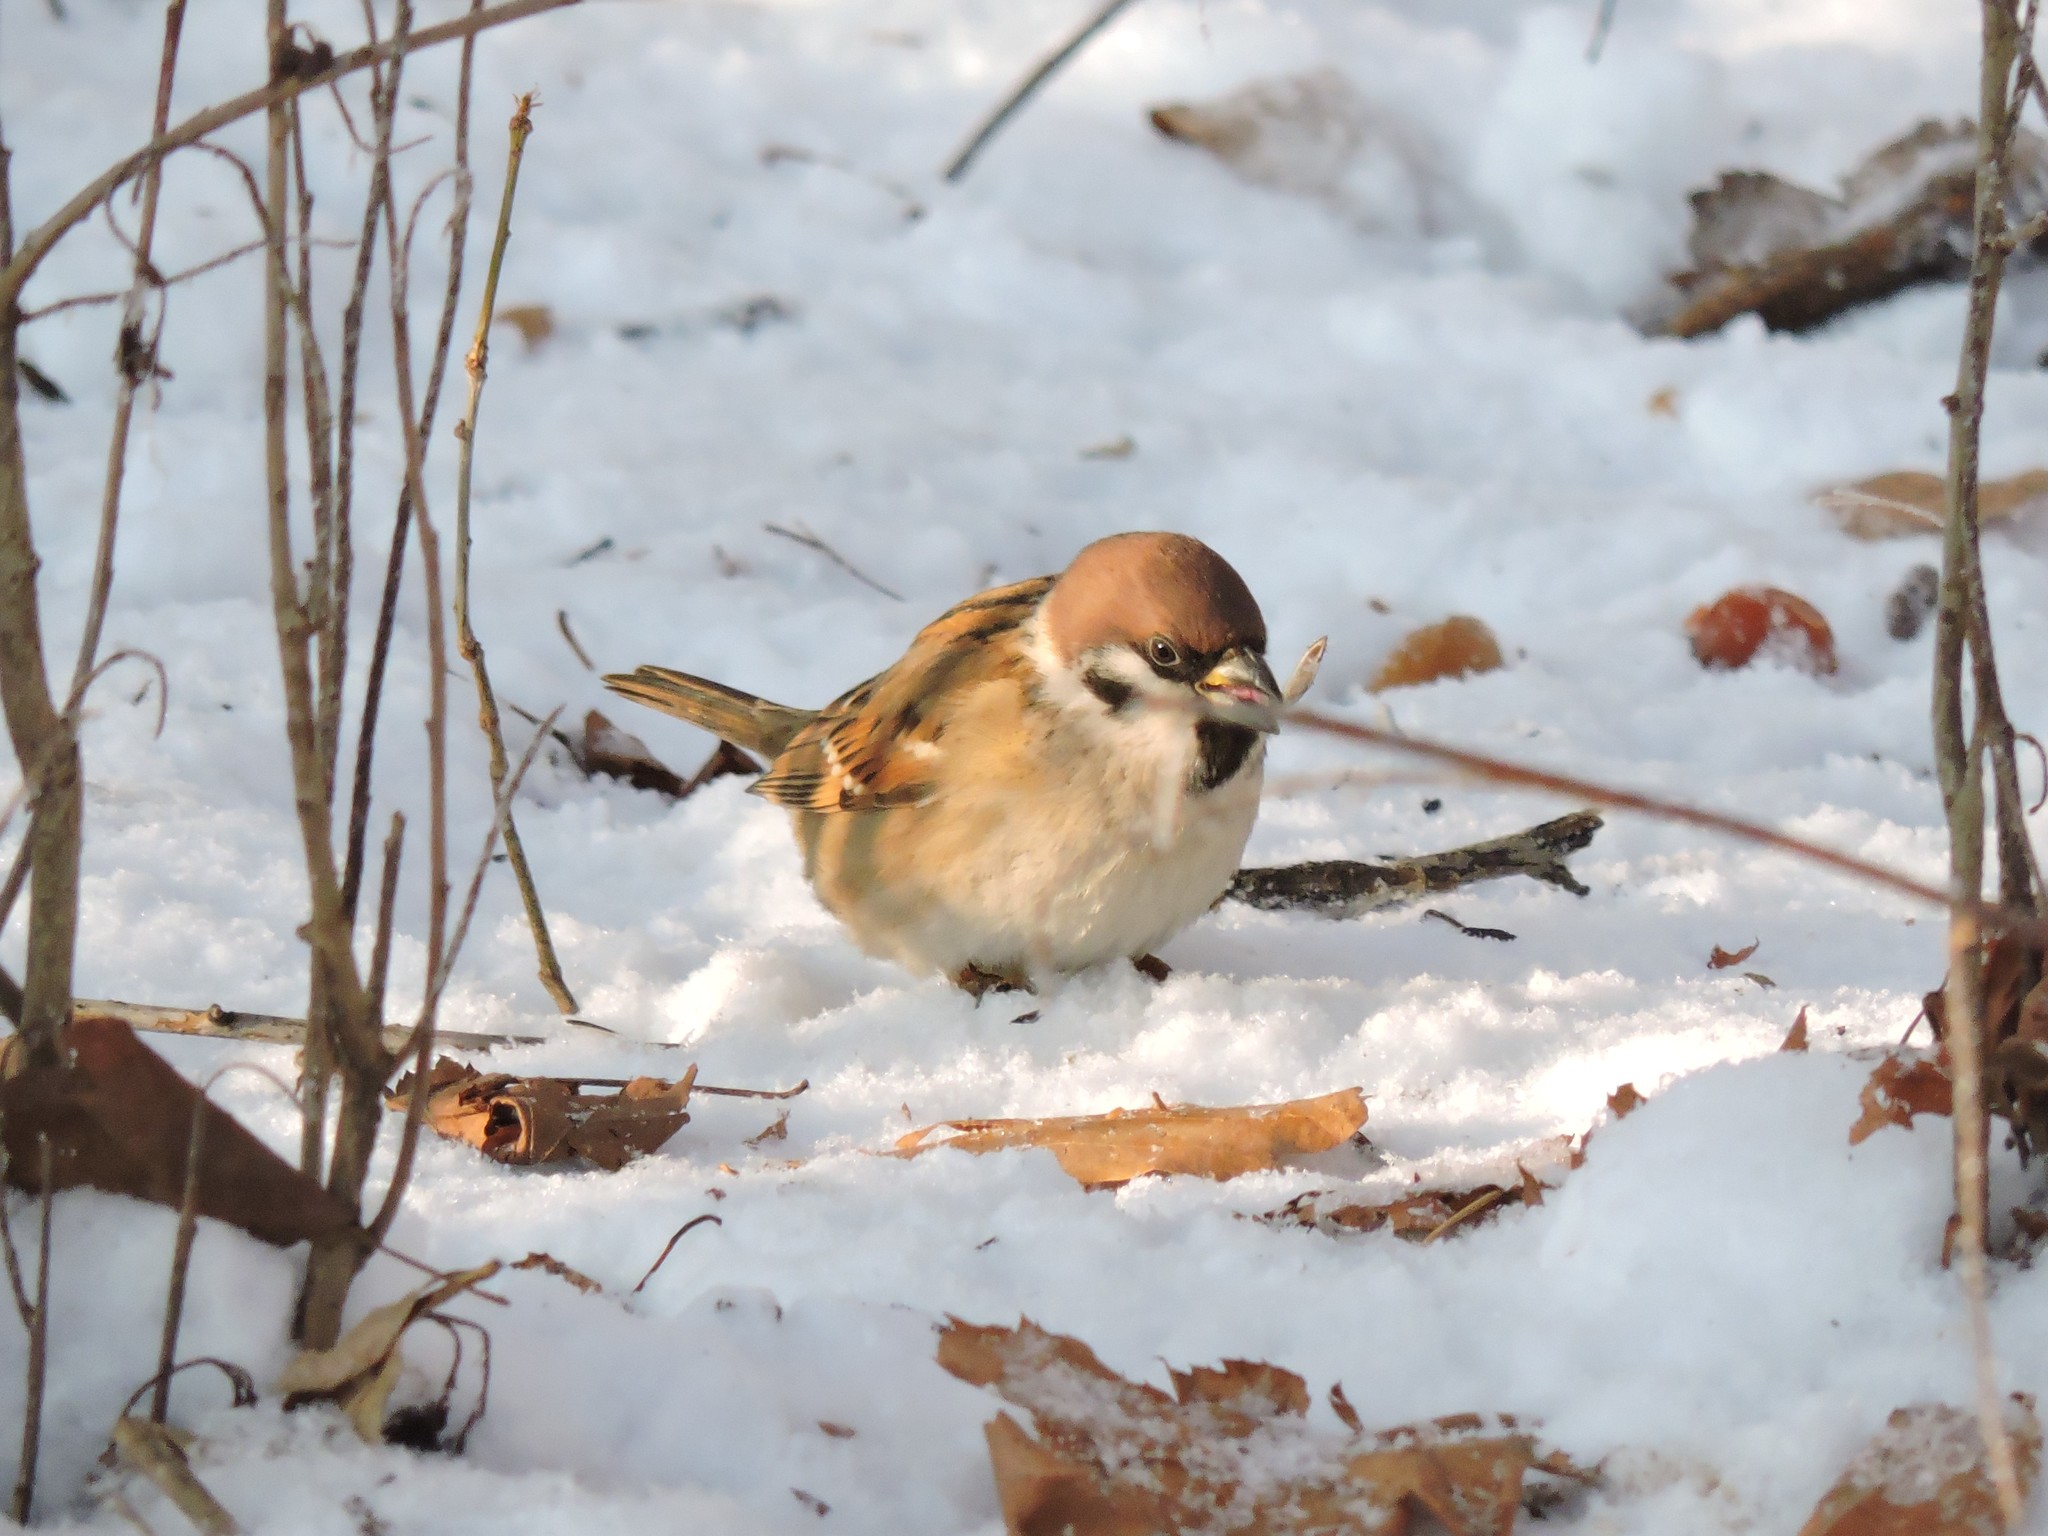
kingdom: Animalia
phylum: Chordata
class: Aves
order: Passeriformes
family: Passeridae
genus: Passer
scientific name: Passer montanus
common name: Eurasian tree sparrow
